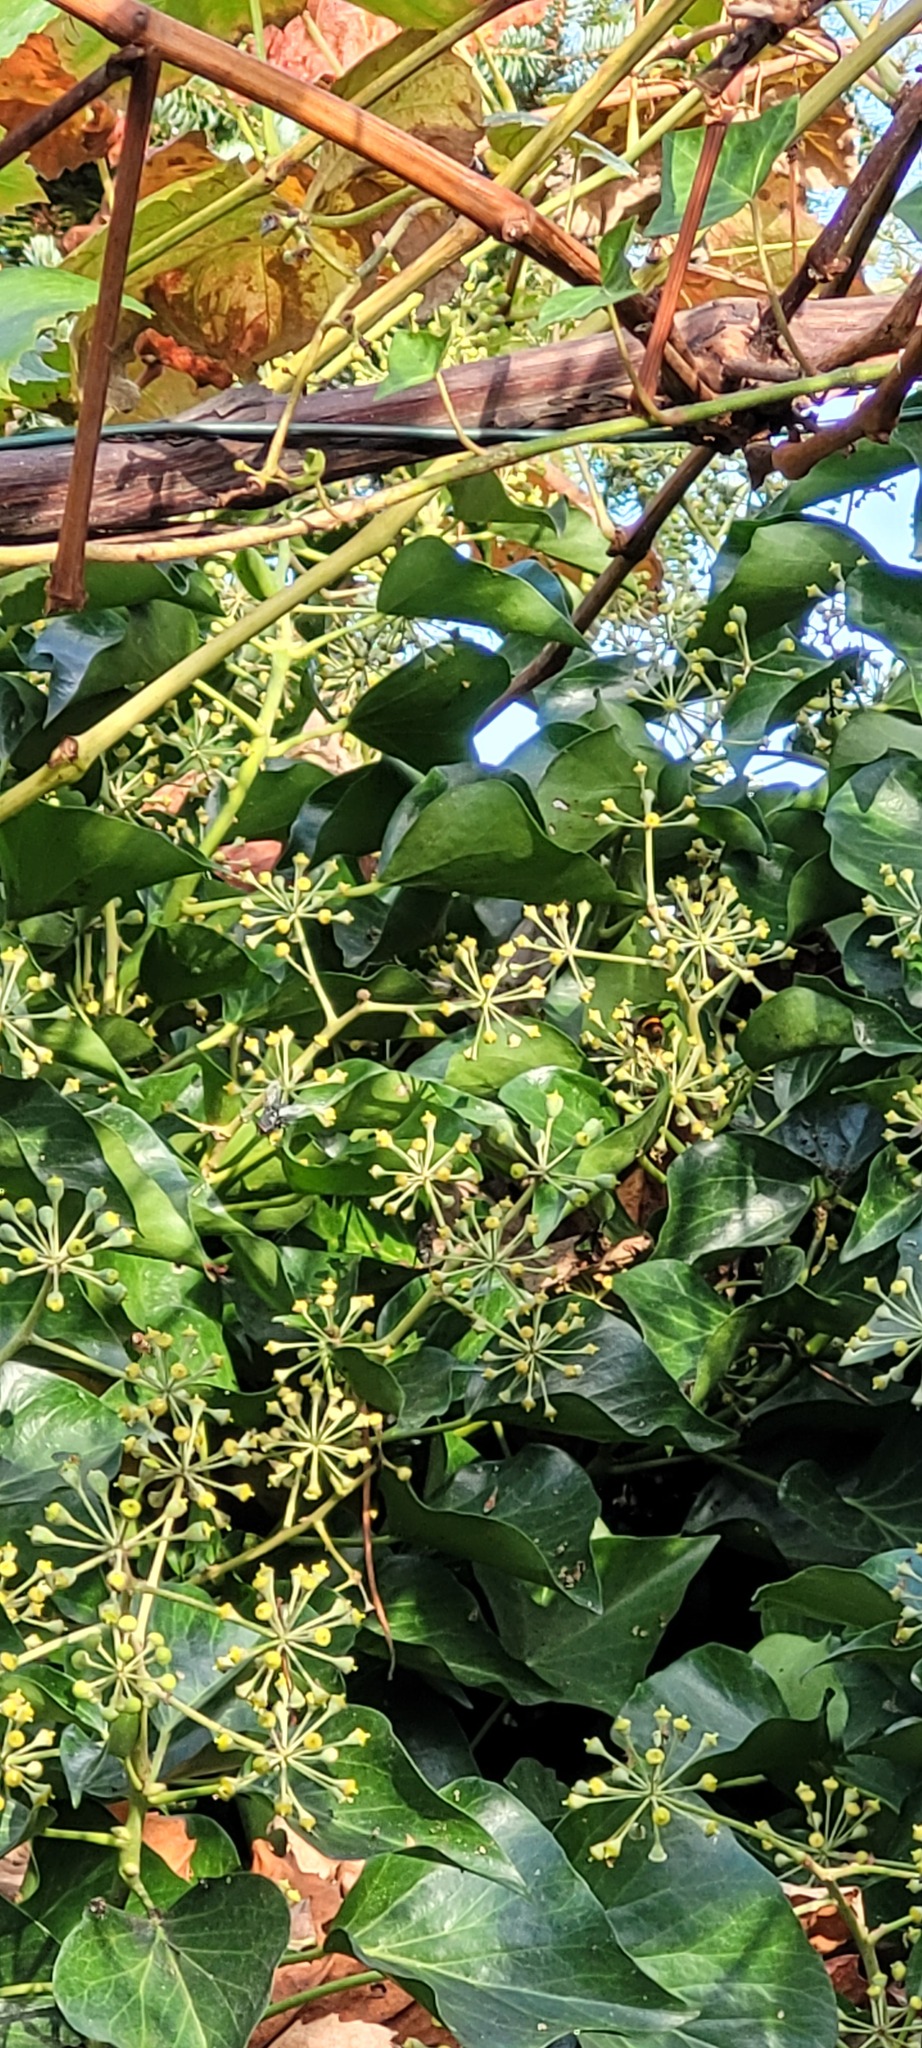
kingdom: Animalia
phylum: Arthropoda
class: Insecta
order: Hymenoptera
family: Vespidae
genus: Vespa
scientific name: Vespa velutina
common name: Asian hornet
